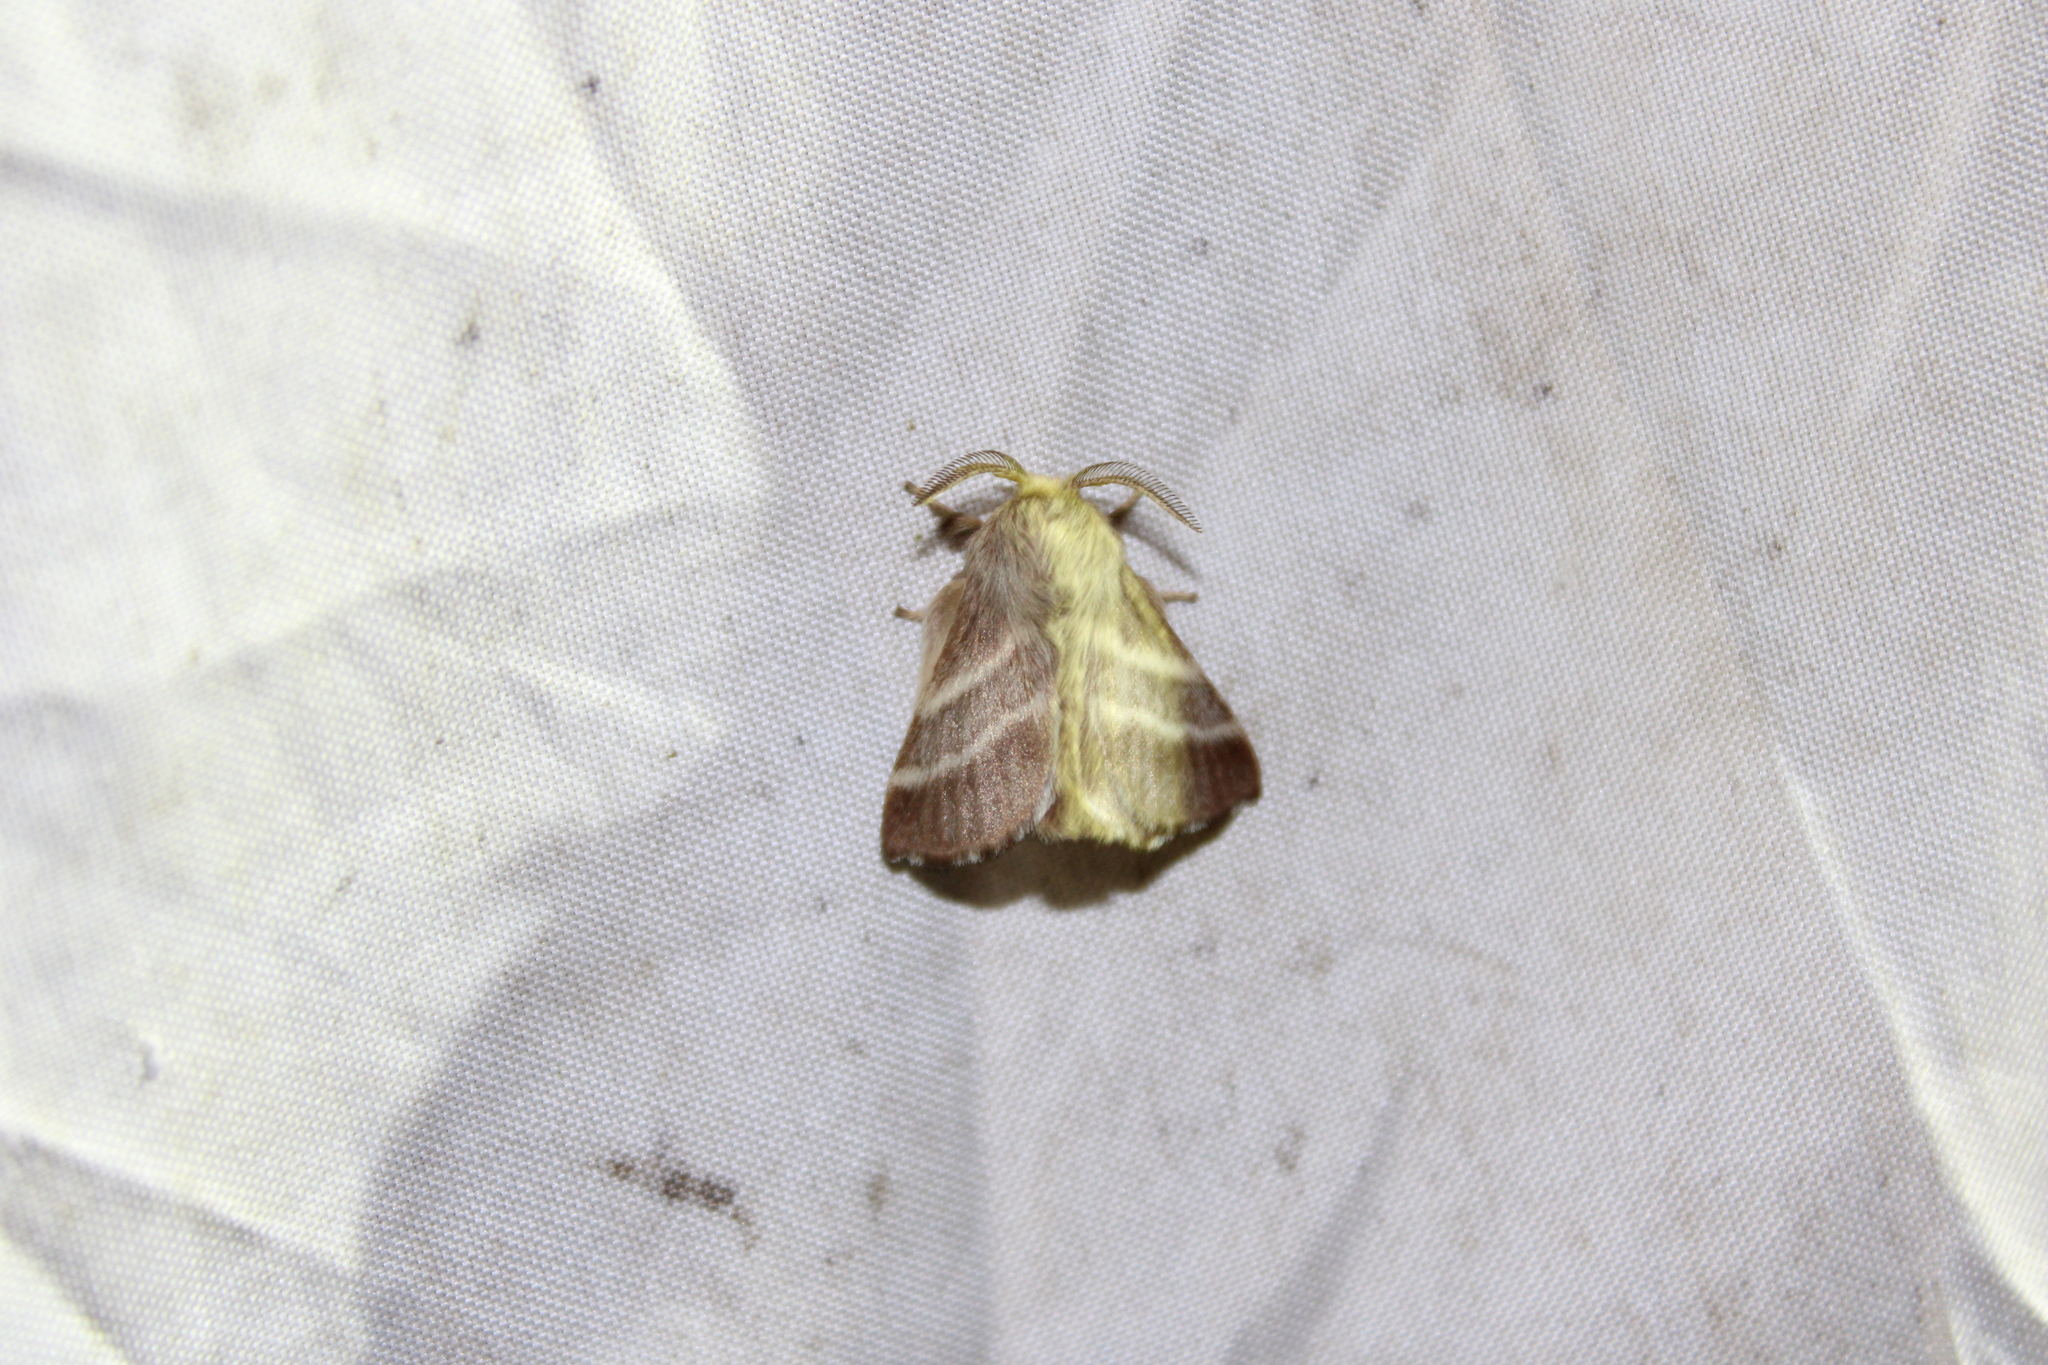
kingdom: Animalia
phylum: Arthropoda
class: Insecta
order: Lepidoptera
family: Lasiocampidae
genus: Malacosoma
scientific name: Malacosoma americana
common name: Eastern tent caterpillar moth
